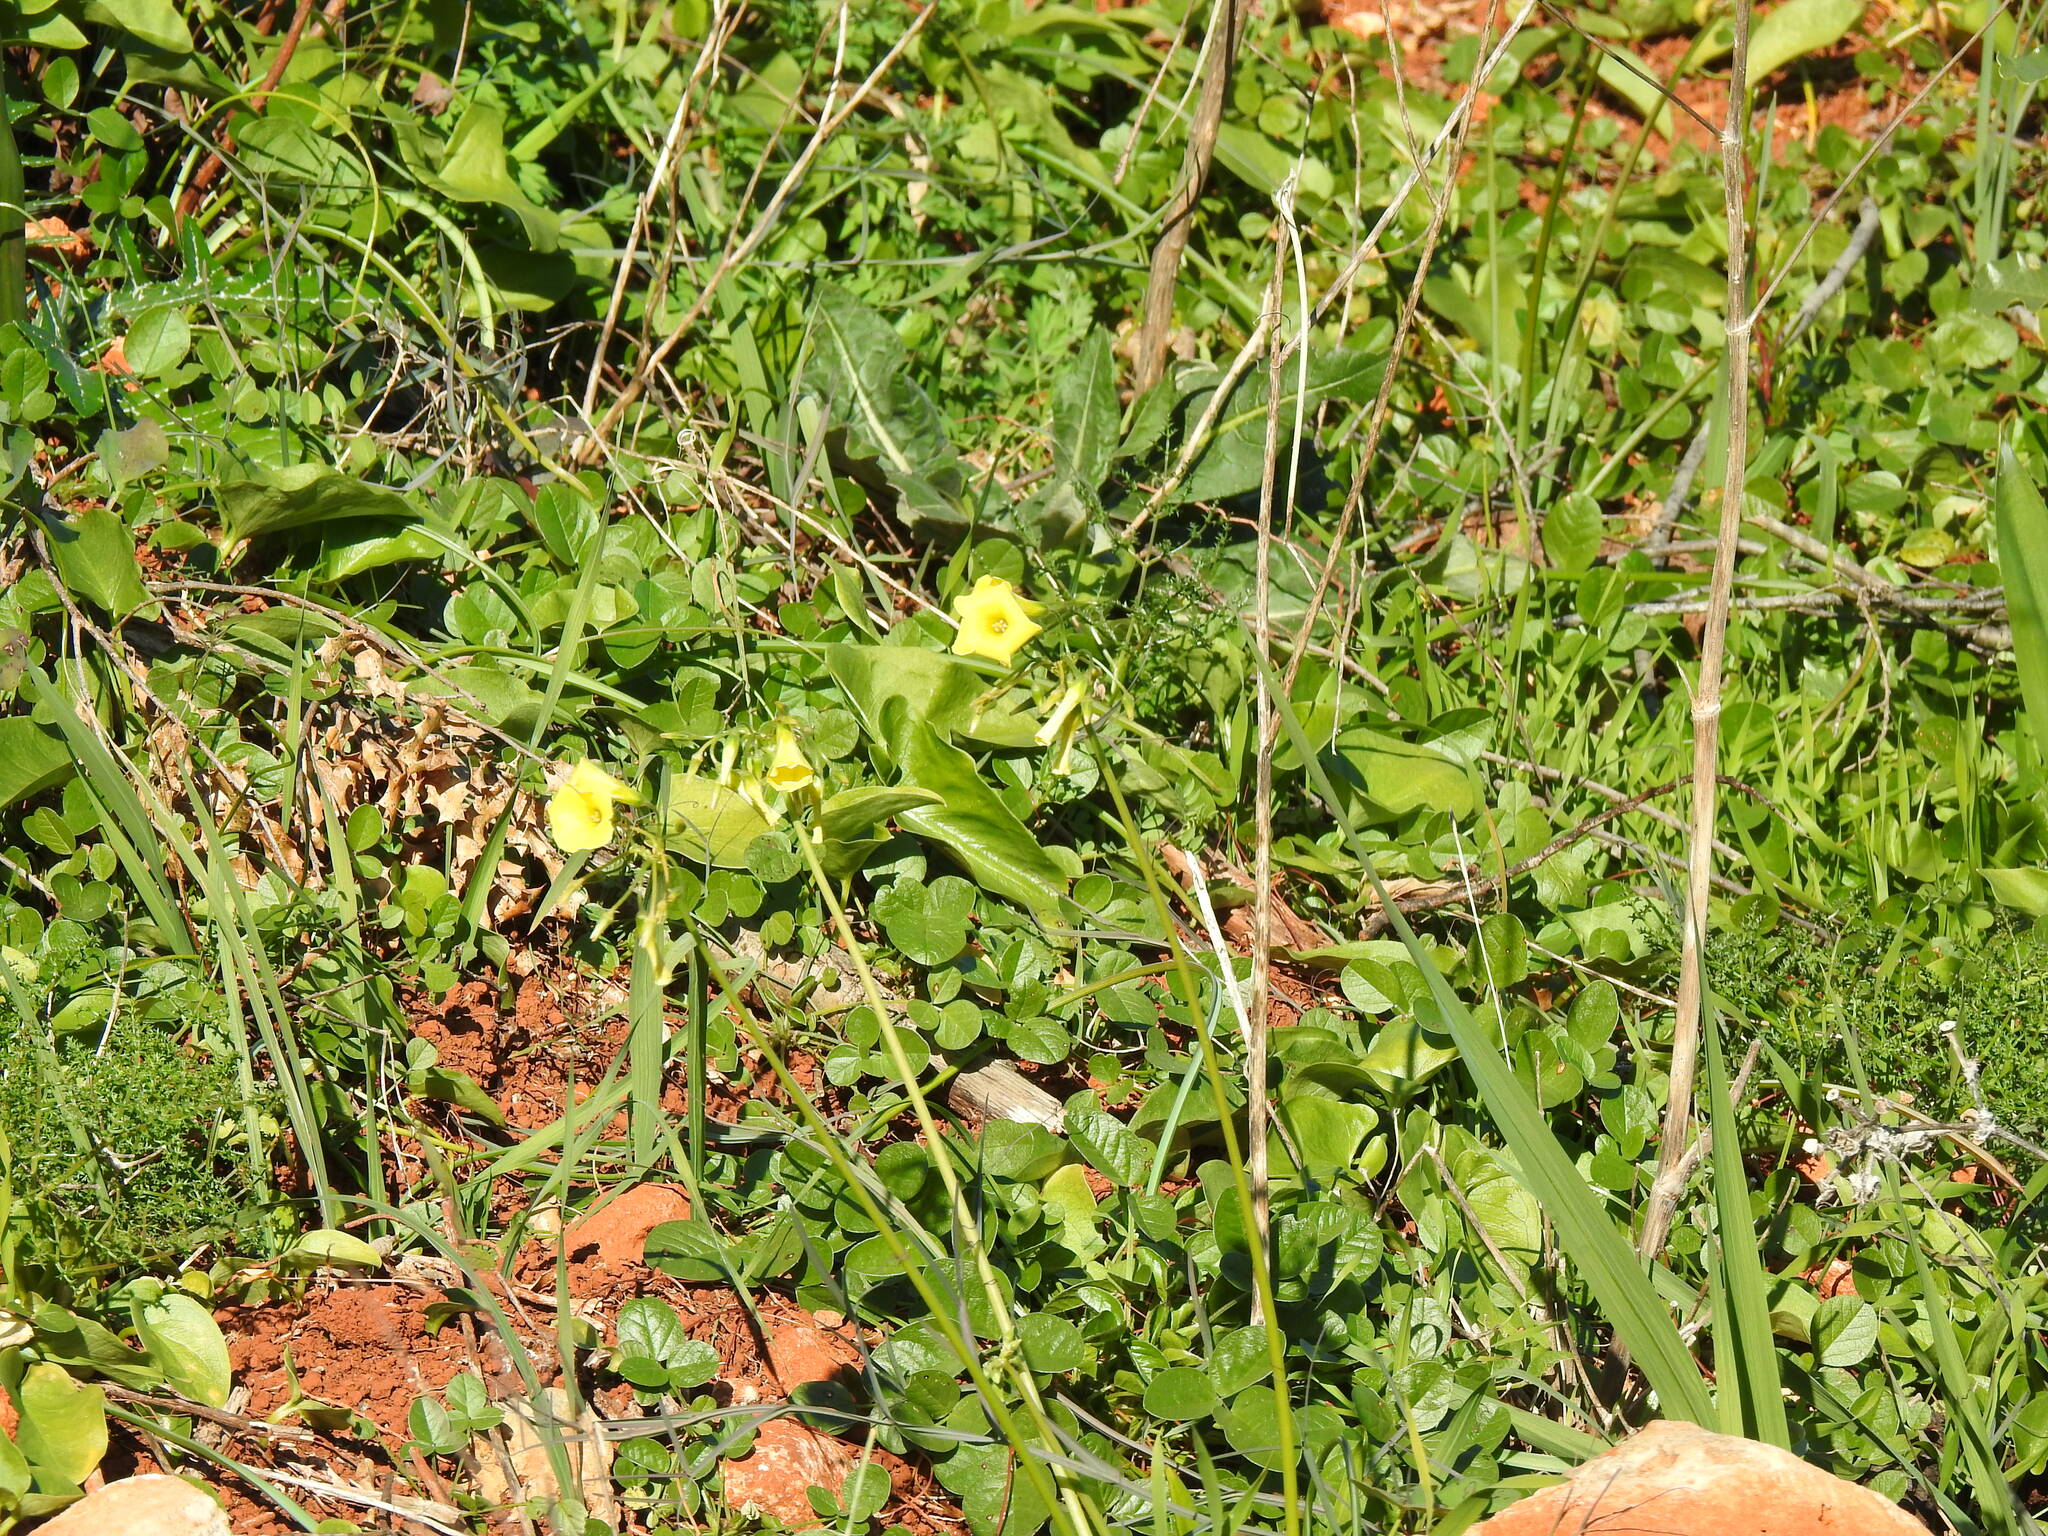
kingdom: Plantae
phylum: Tracheophyta
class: Magnoliopsida
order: Oxalidales
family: Oxalidaceae
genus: Oxalis
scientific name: Oxalis pes-caprae
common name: Bermuda-buttercup
